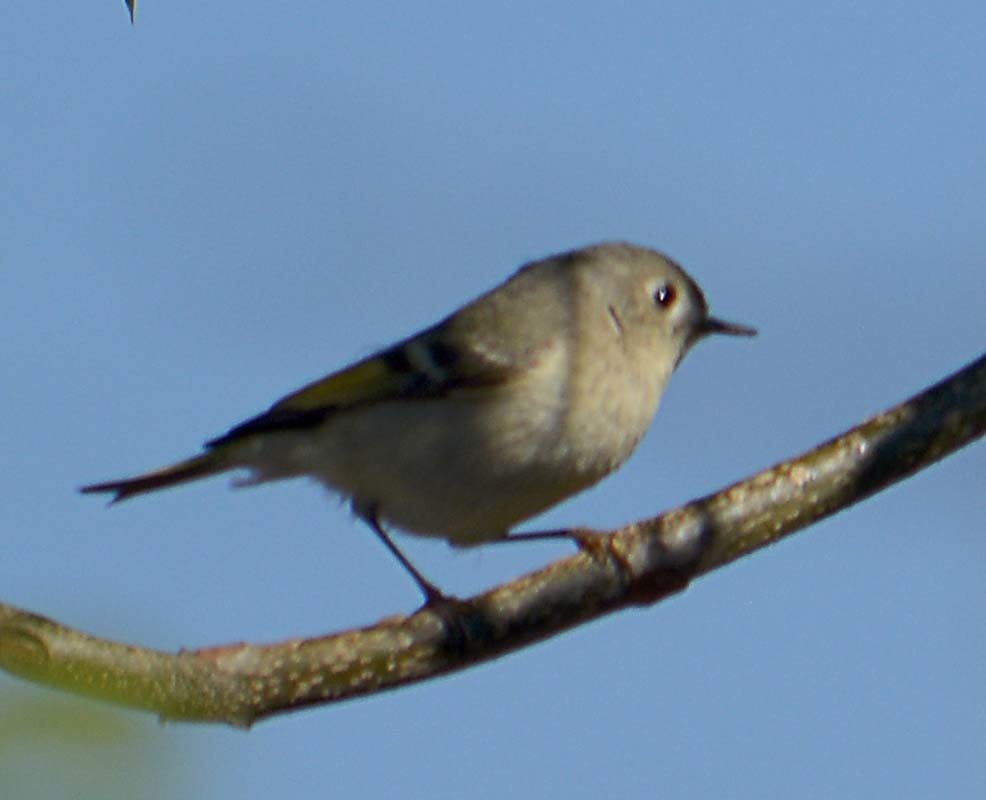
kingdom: Animalia
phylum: Chordata
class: Aves
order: Passeriformes
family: Regulidae
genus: Regulus
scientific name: Regulus calendula
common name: Ruby-crowned kinglet
